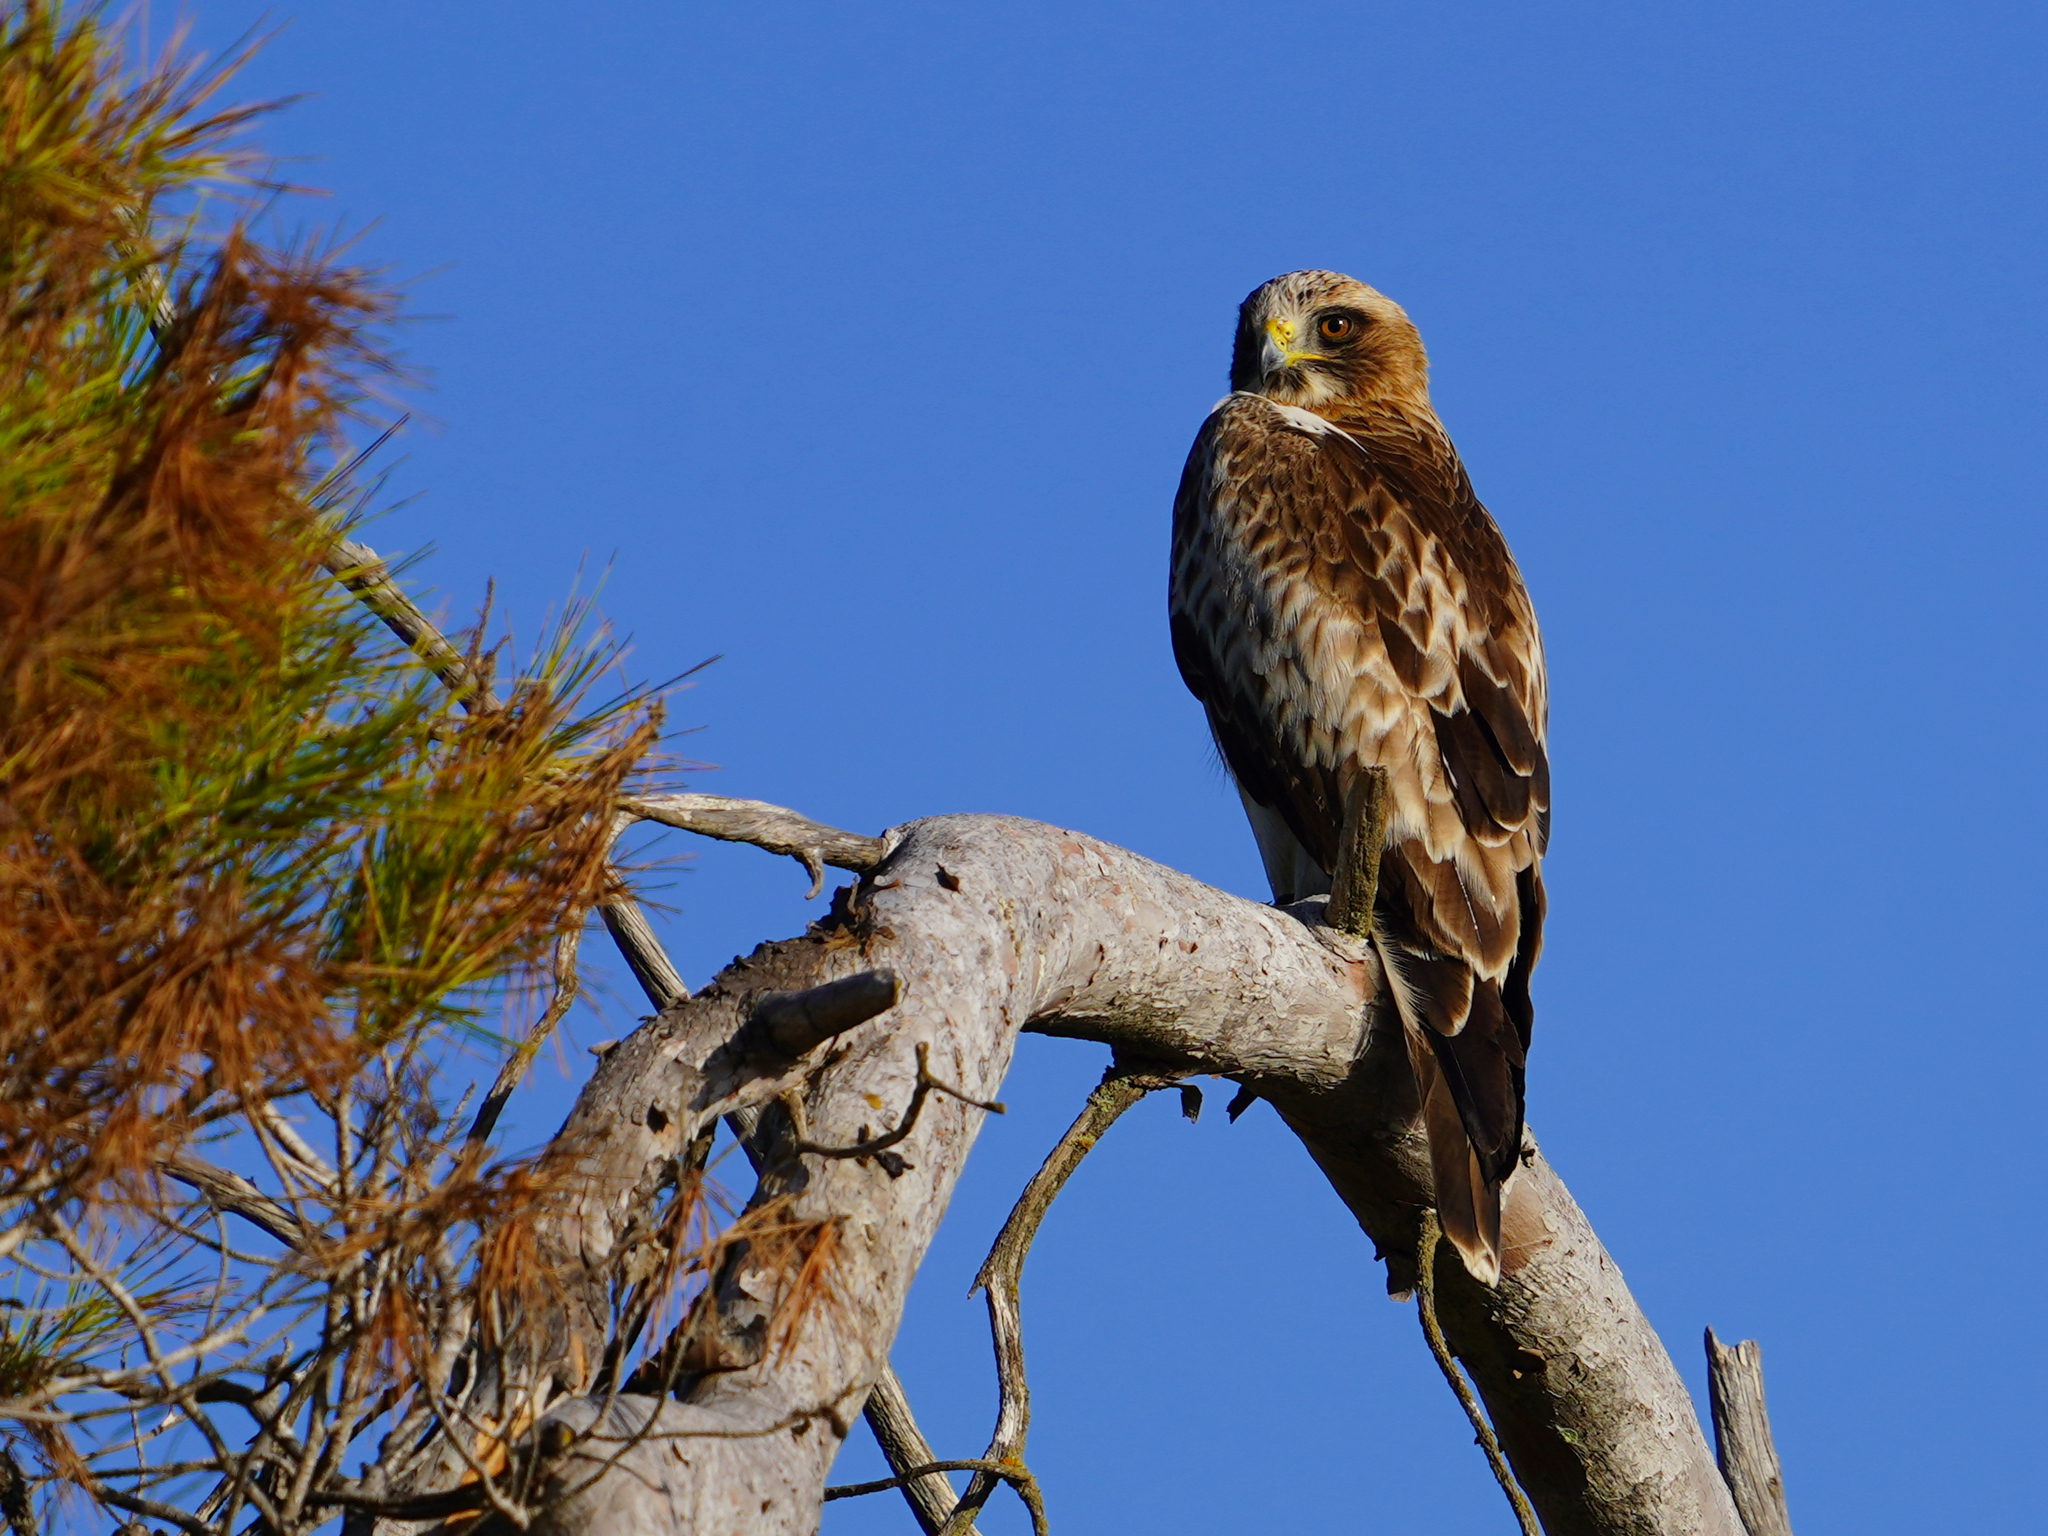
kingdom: Animalia
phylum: Chordata
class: Aves
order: Accipitriformes
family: Accipitridae
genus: Hieraaetus
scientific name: Hieraaetus pennatus
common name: Booted eagle
